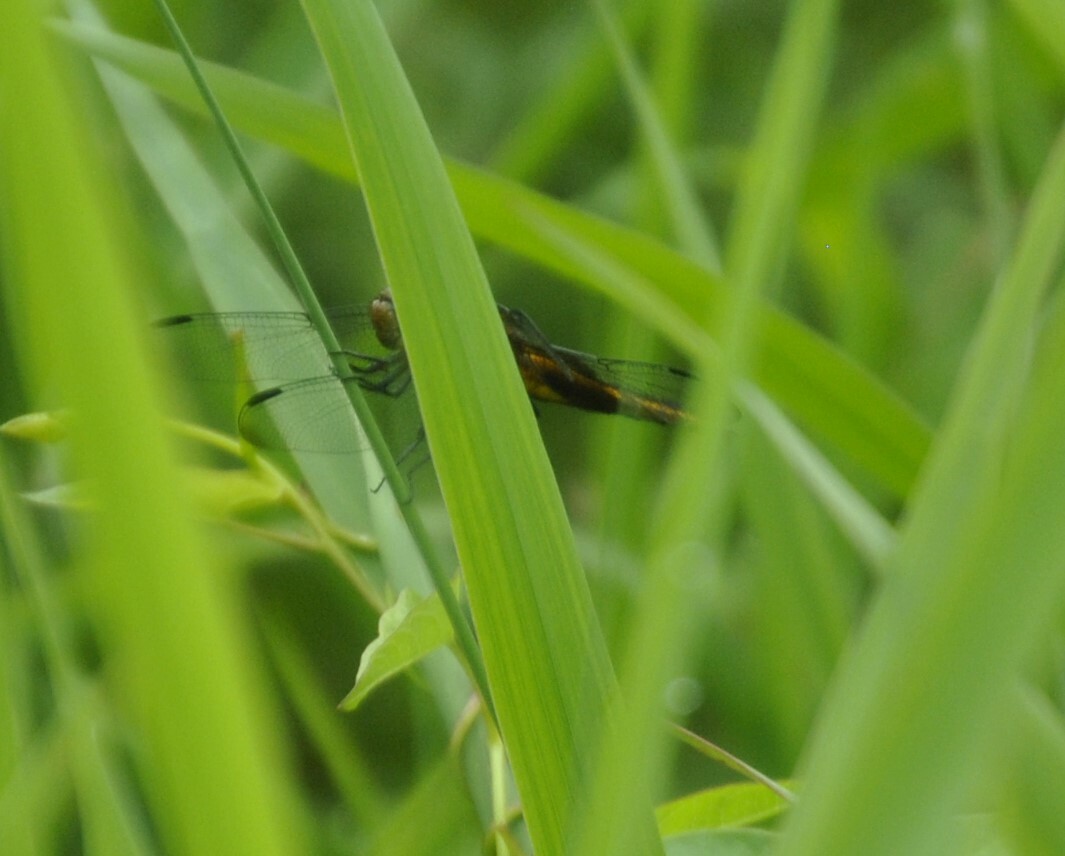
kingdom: Animalia
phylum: Arthropoda
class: Insecta
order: Odonata
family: Libellulidae
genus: Libellula
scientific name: Libellula luctuosa
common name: Widow skimmer
